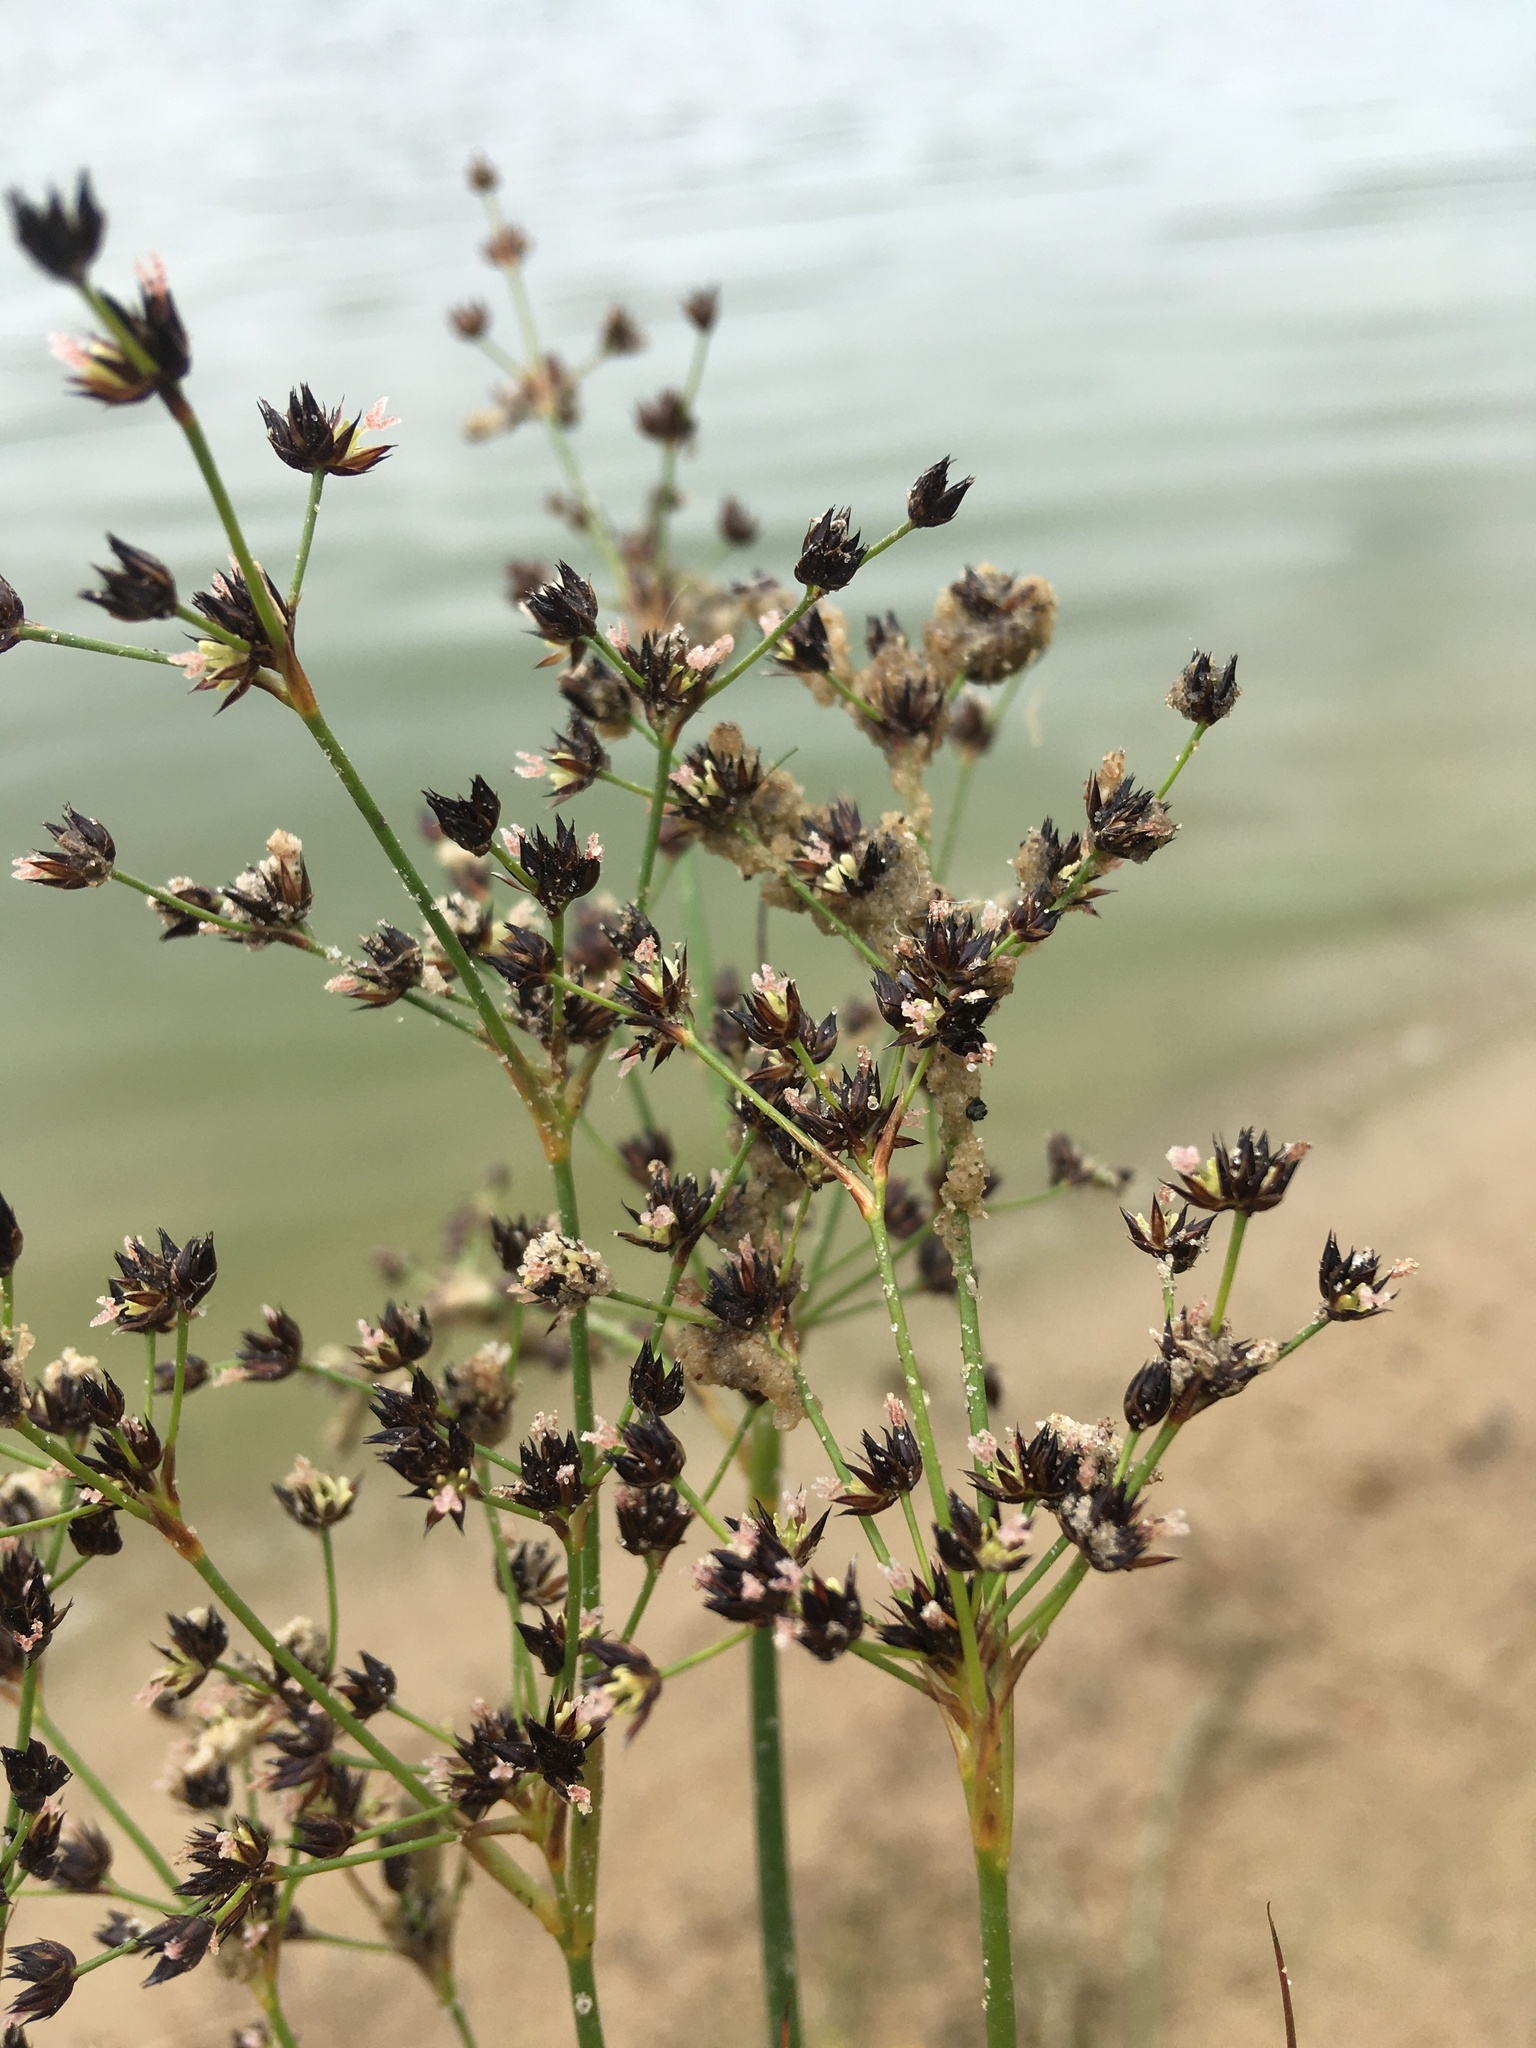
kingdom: Plantae
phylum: Tracheophyta
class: Liliopsida
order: Poales
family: Juncaceae
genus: Juncus
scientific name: Juncus articulatus
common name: Jointed rush
